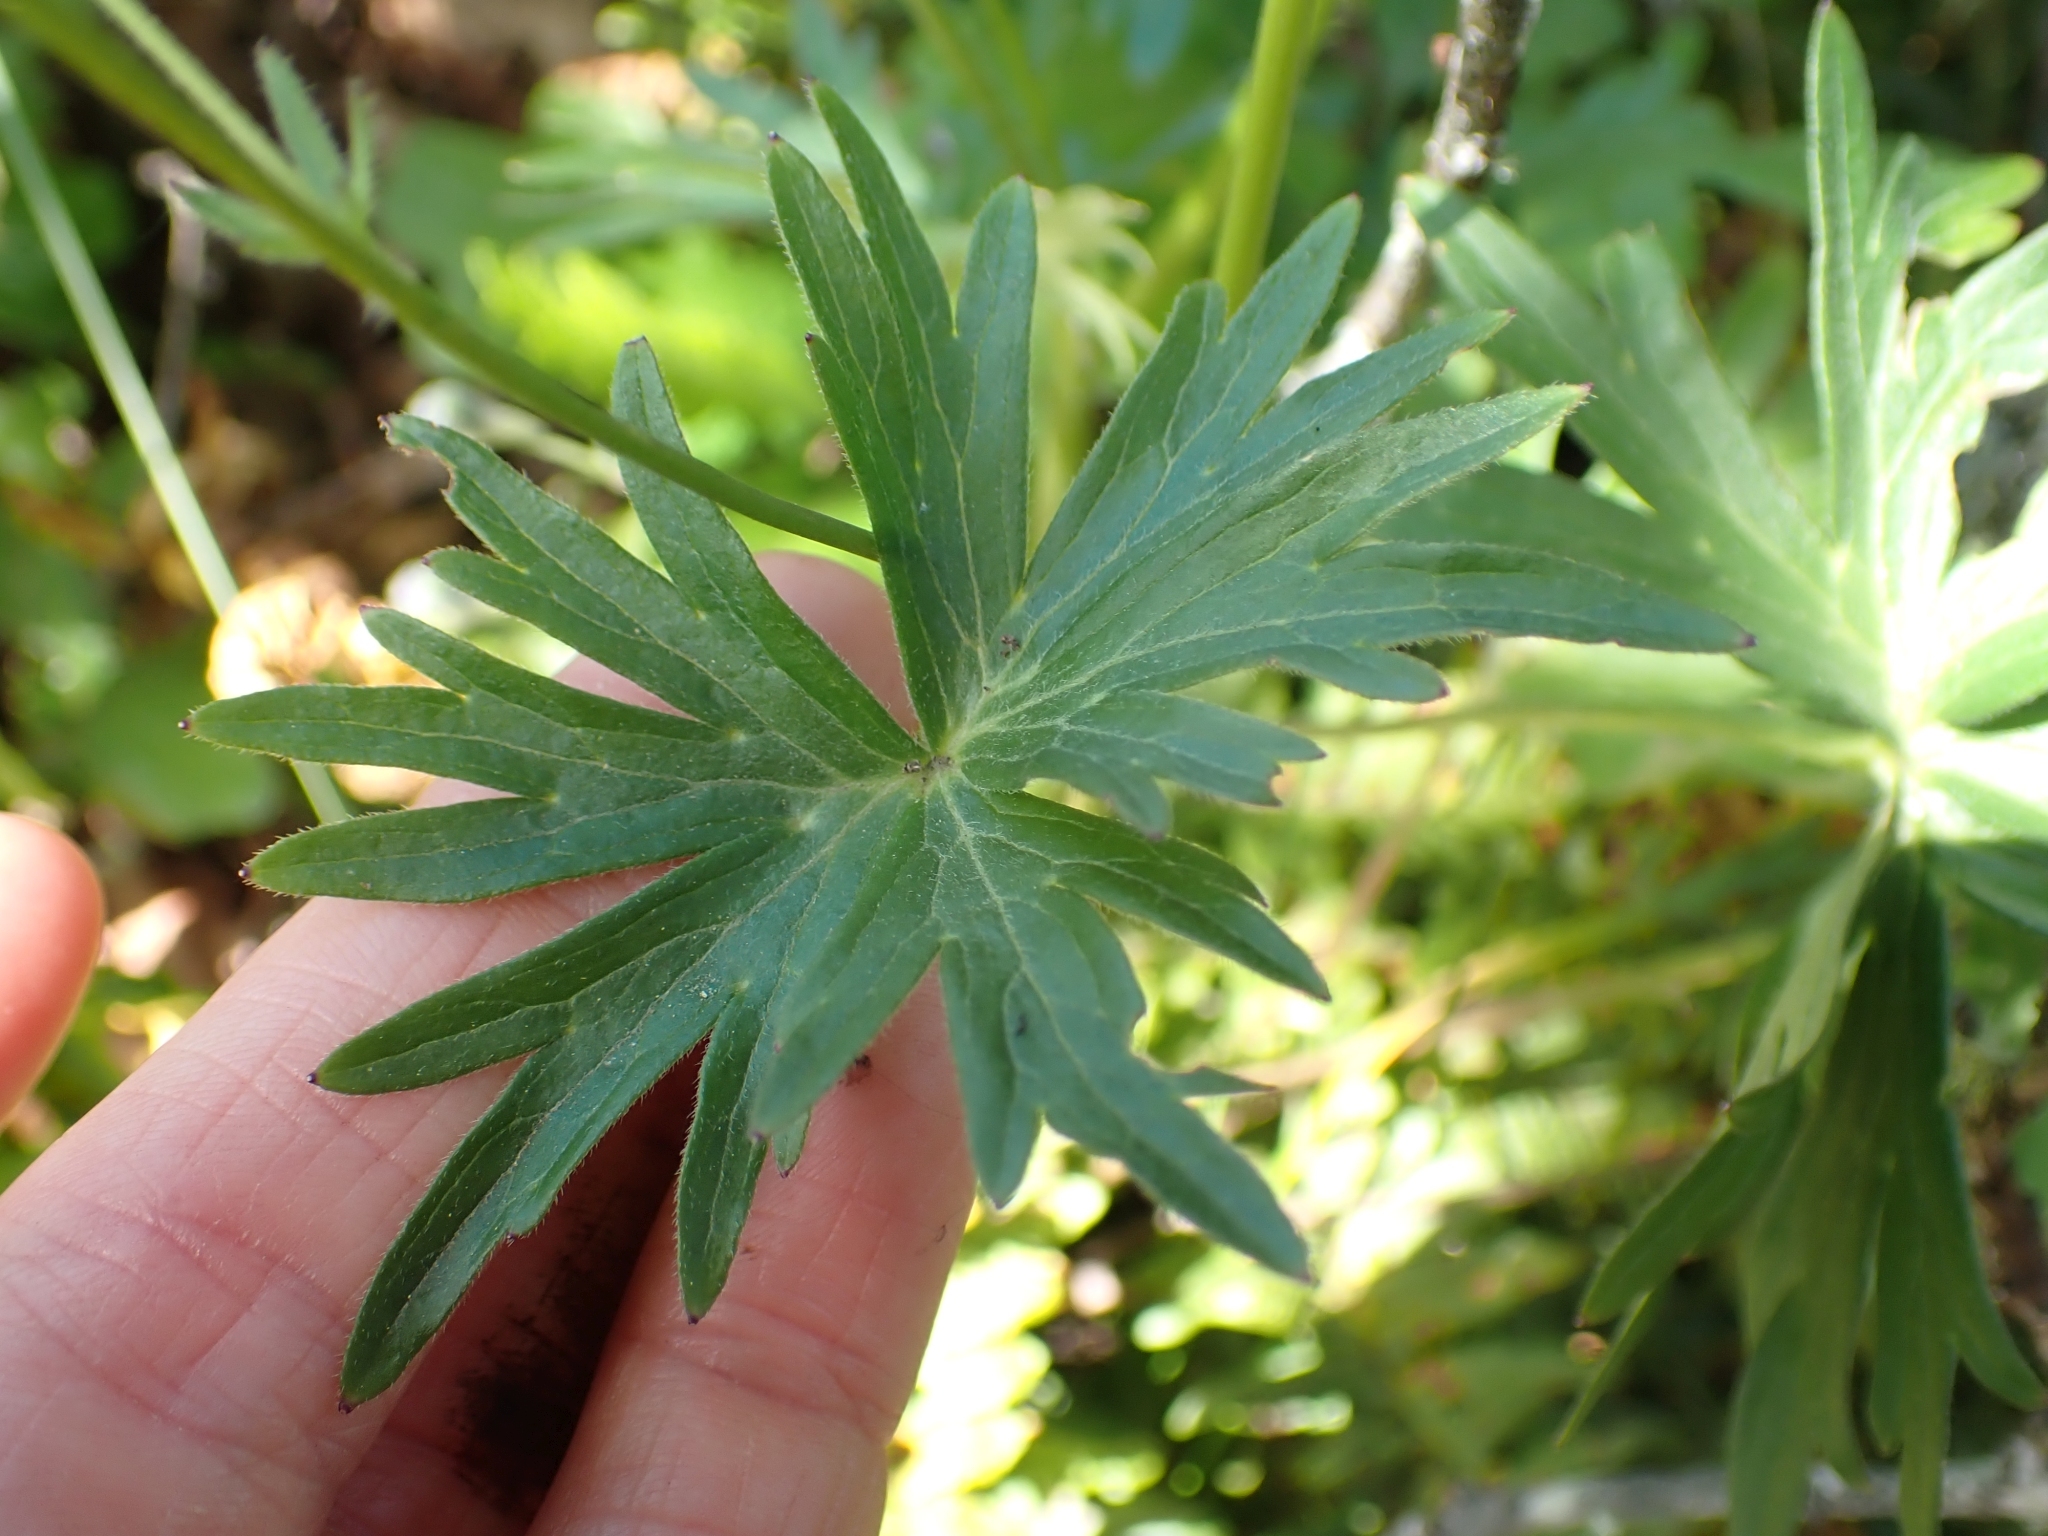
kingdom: Plantae
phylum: Tracheophyta
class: Magnoliopsida
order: Ranunculales
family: Ranunculaceae
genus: Delphinium
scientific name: Delphinium menziesii
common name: Menzies's larkspur
